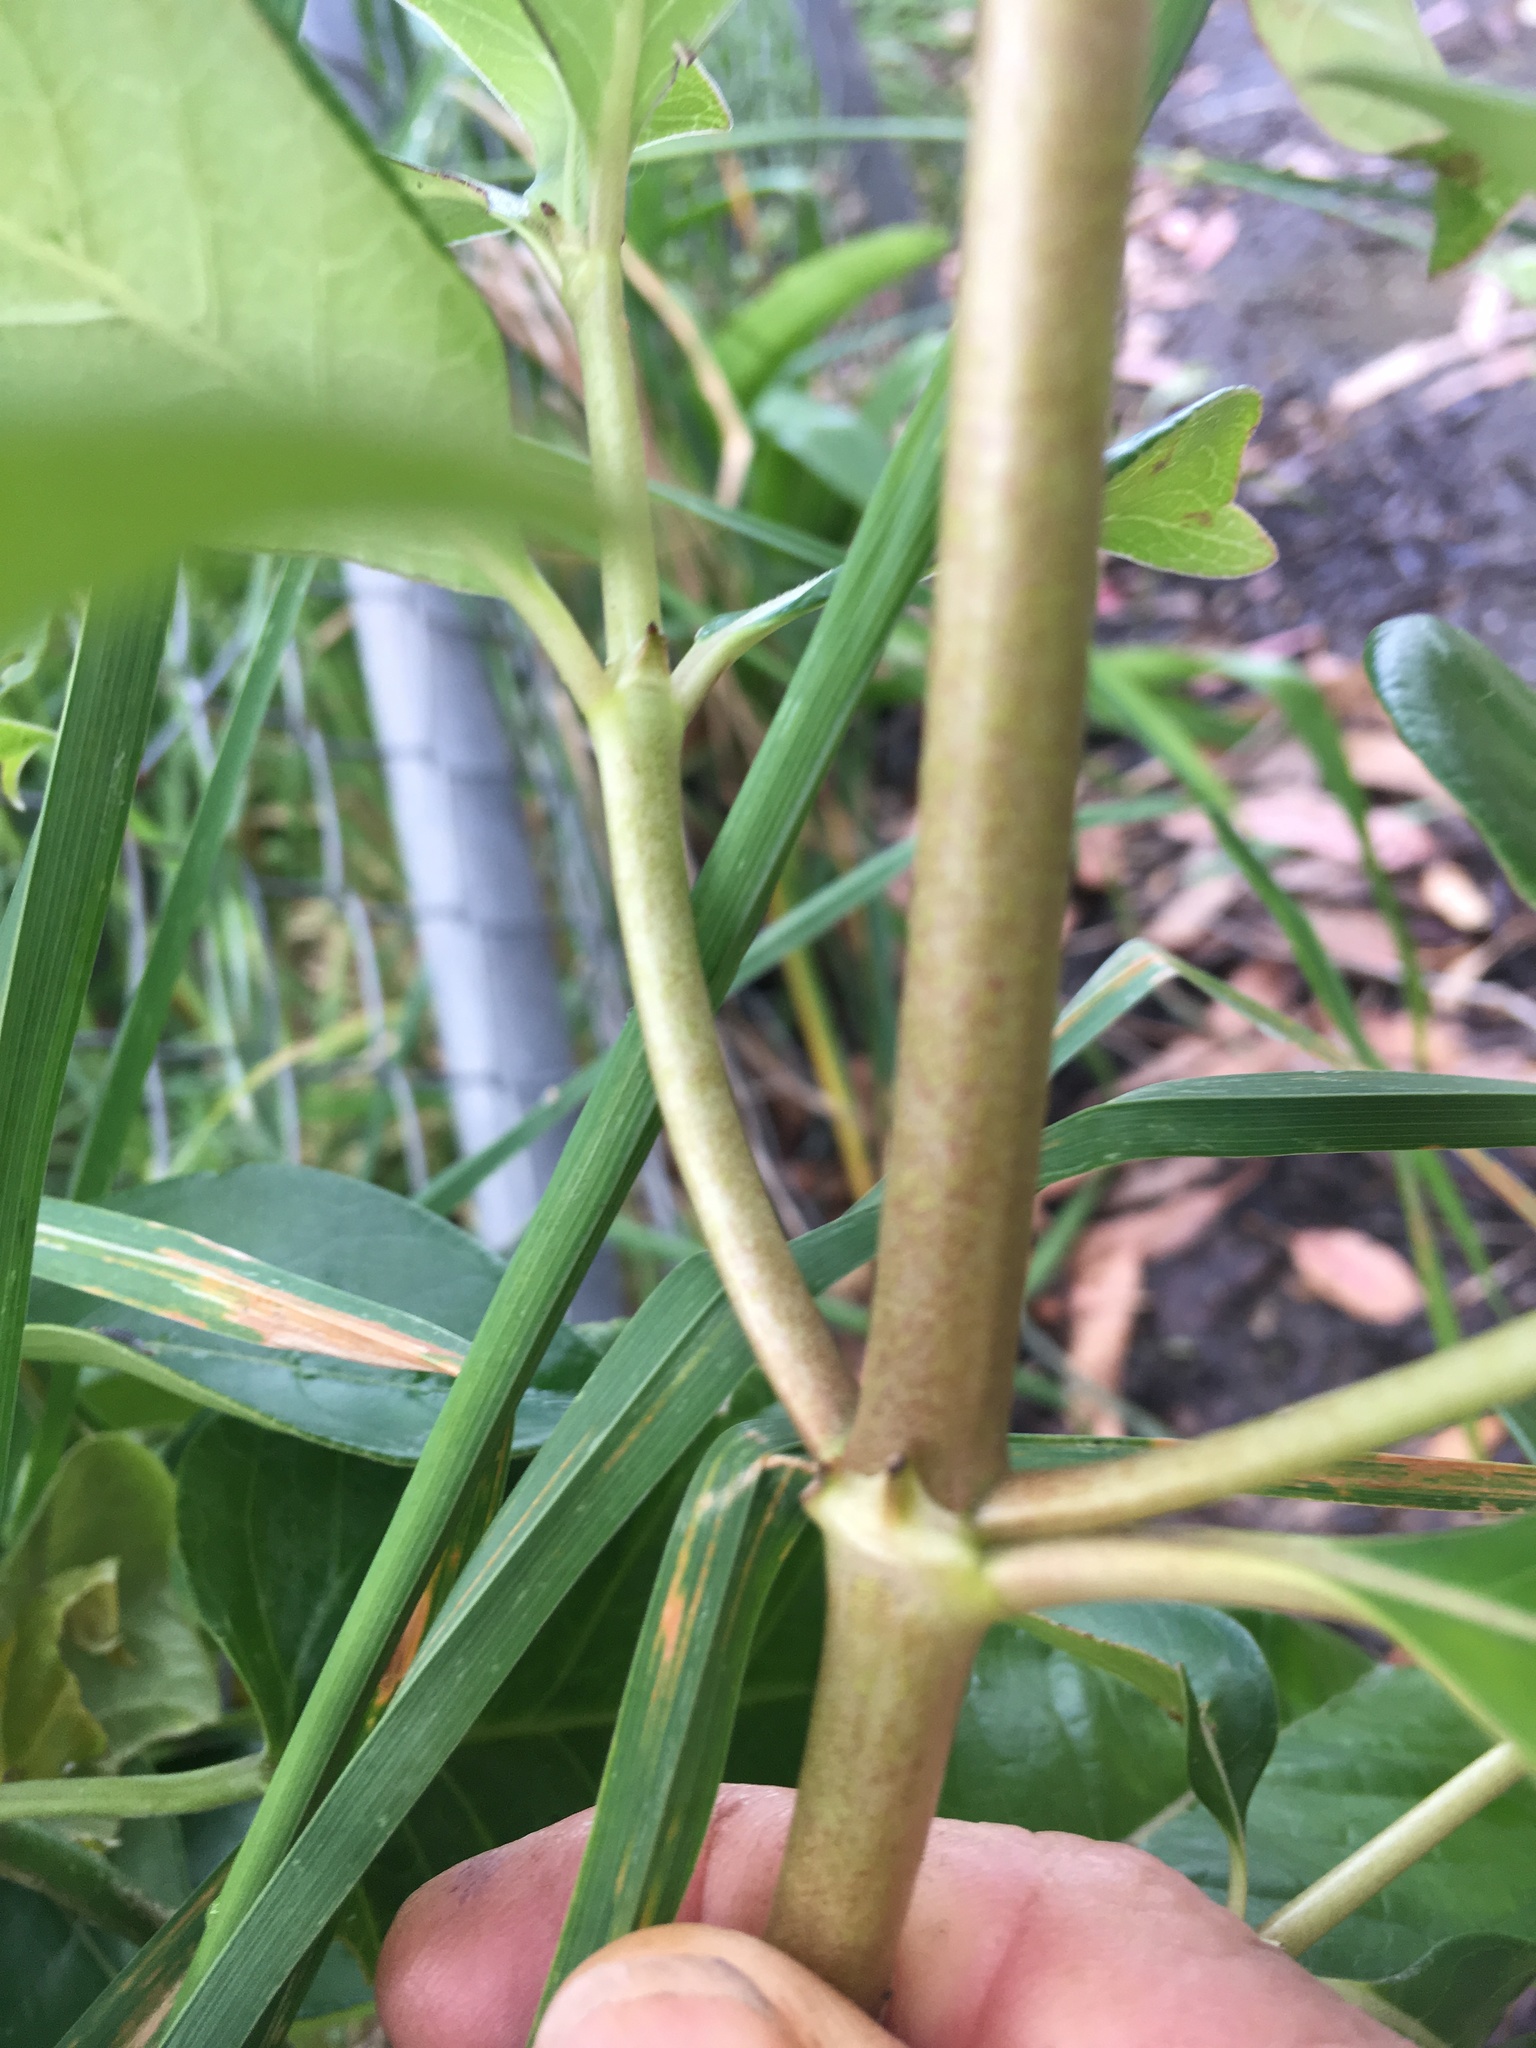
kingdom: Plantae
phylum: Tracheophyta
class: Magnoliopsida
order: Gentianales
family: Rubiaceae
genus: Coprosma
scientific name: Coprosma robusta
